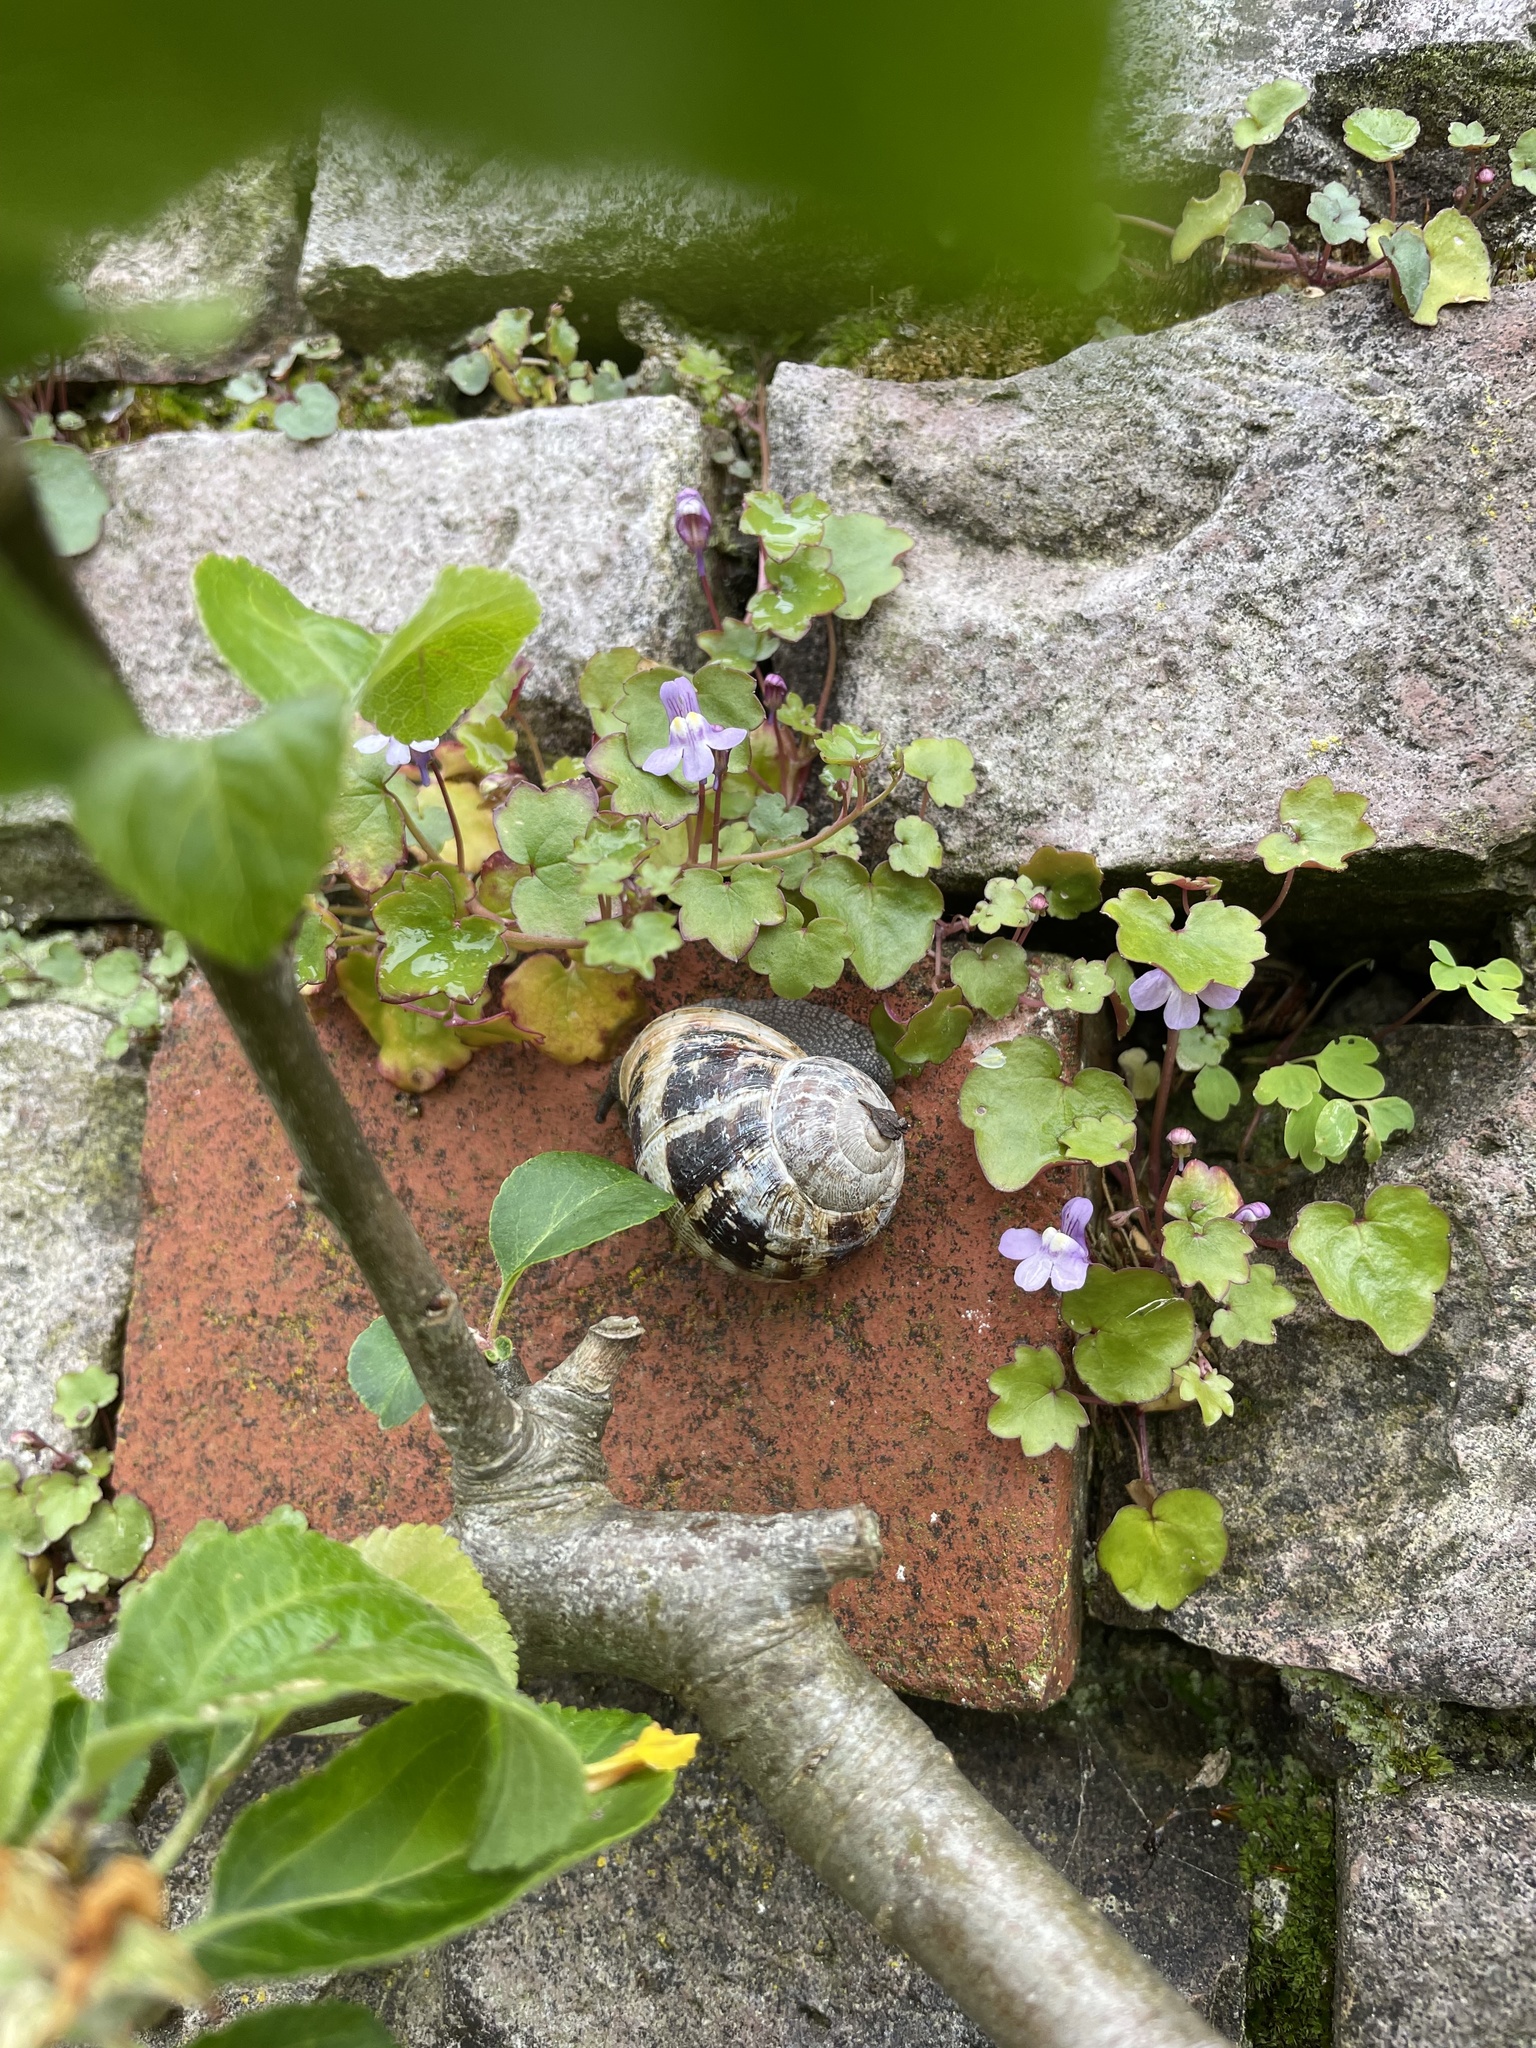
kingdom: Animalia
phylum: Mollusca
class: Gastropoda
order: Stylommatophora
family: Helicidae
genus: Cornu
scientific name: Cornu aspersum
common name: Brown garden snail
